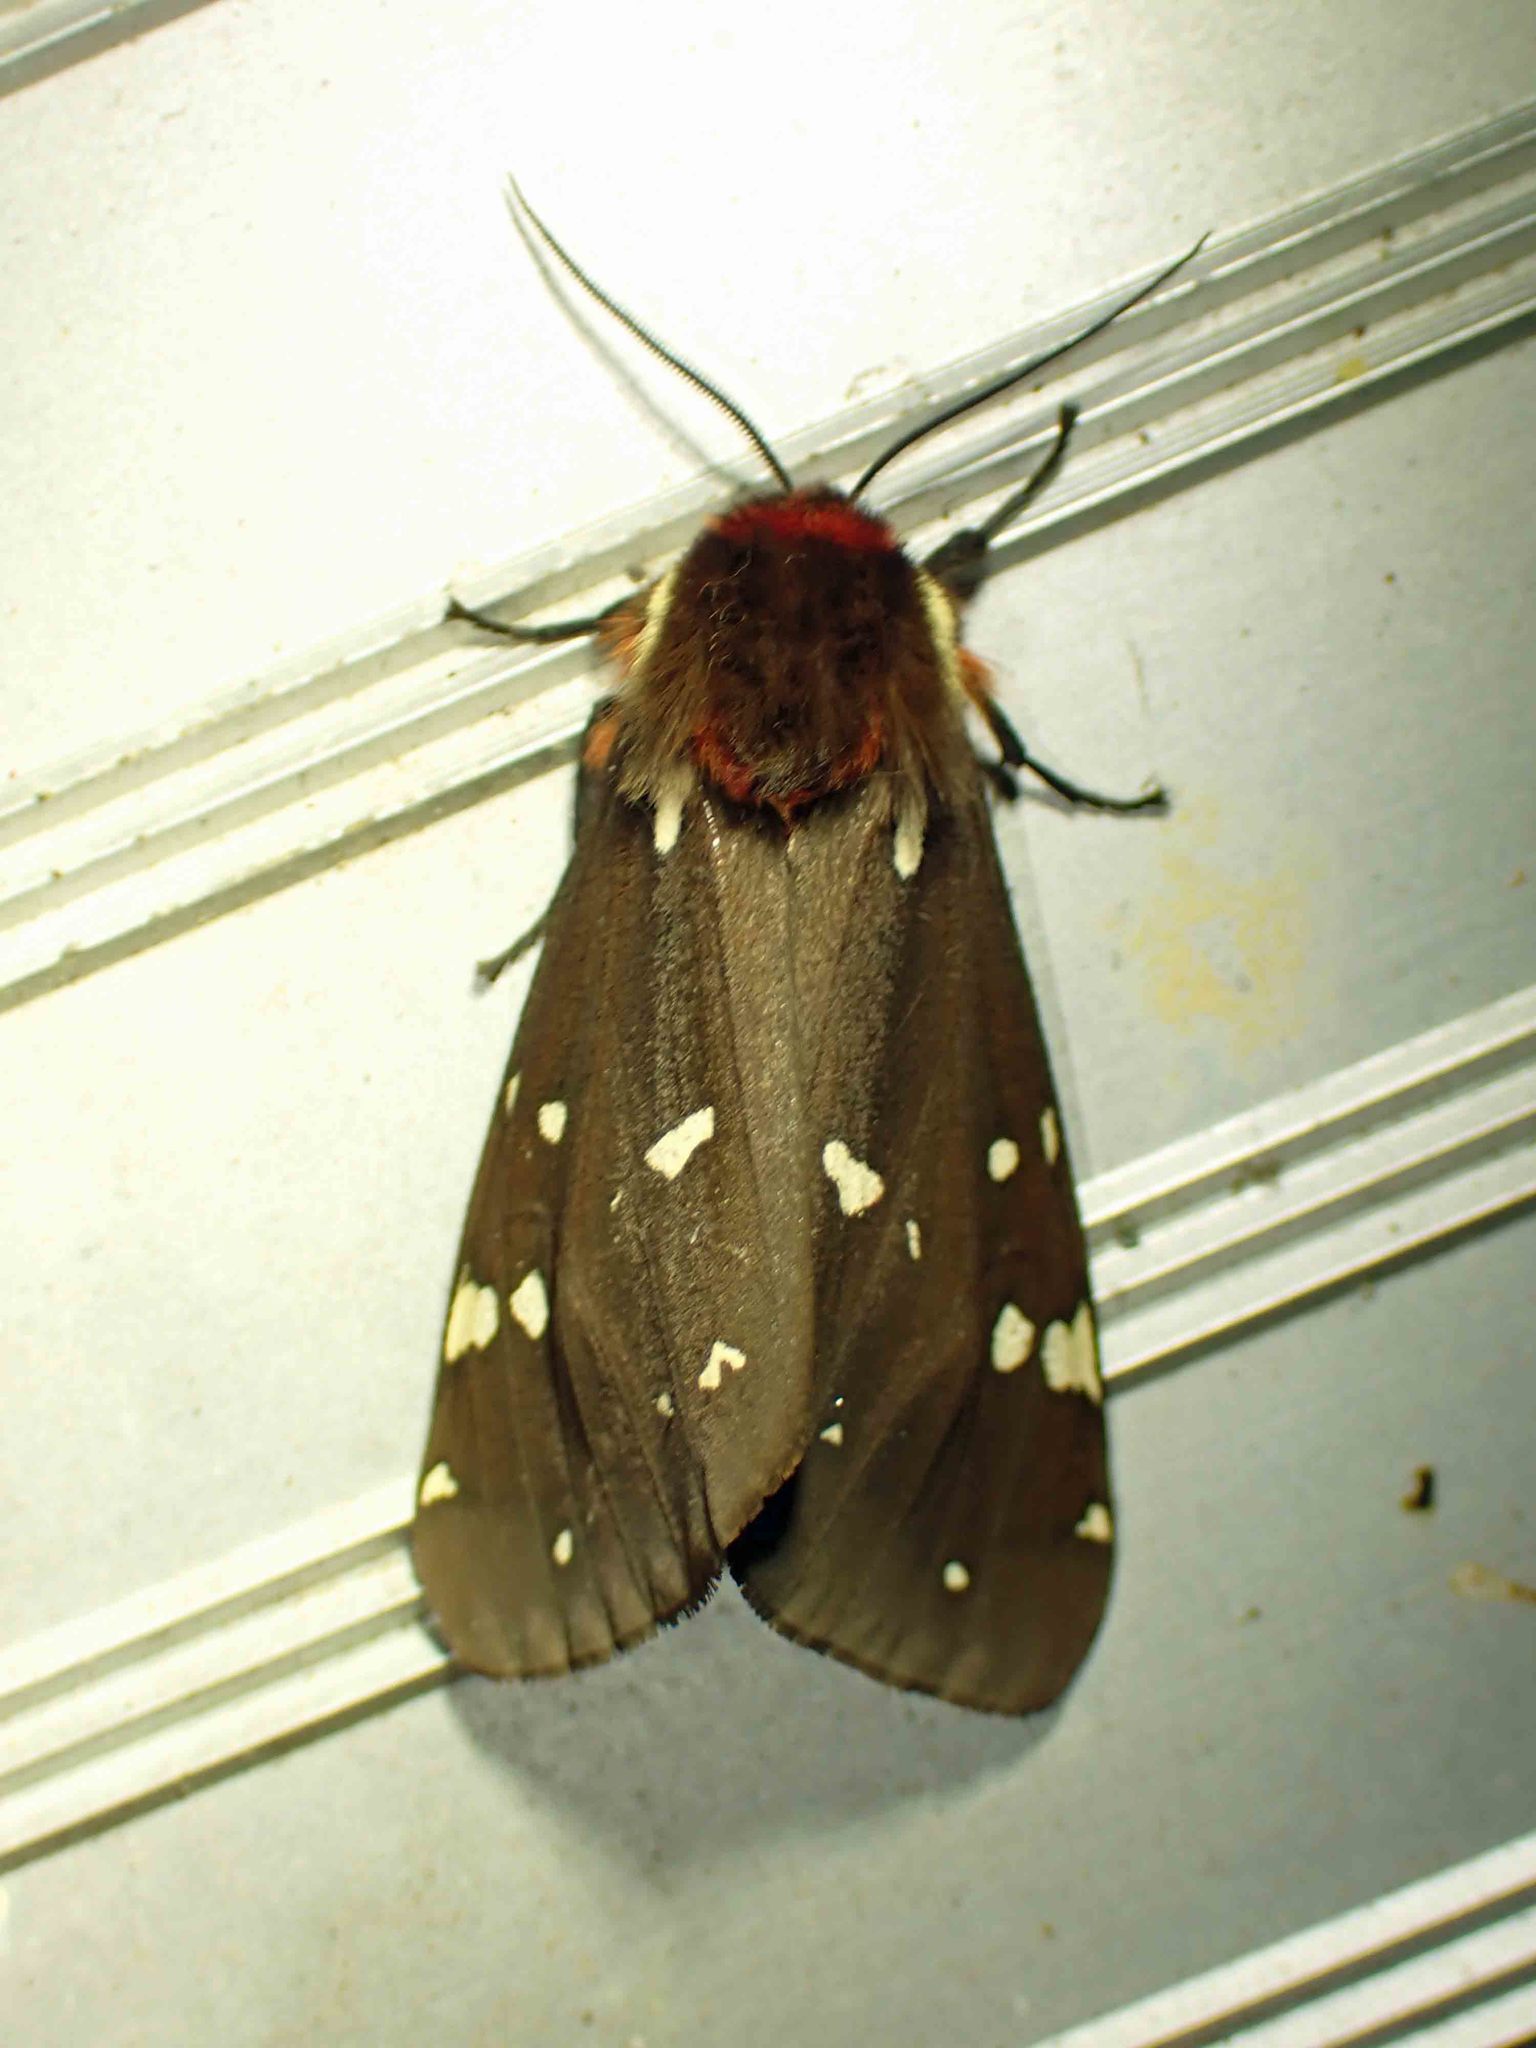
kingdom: Animalia
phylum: Arthropoda
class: Insecta
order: Lepidoptera
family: Erebidae
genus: Arctia
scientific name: Arctia parthenos
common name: St. lawrence tiger moth
